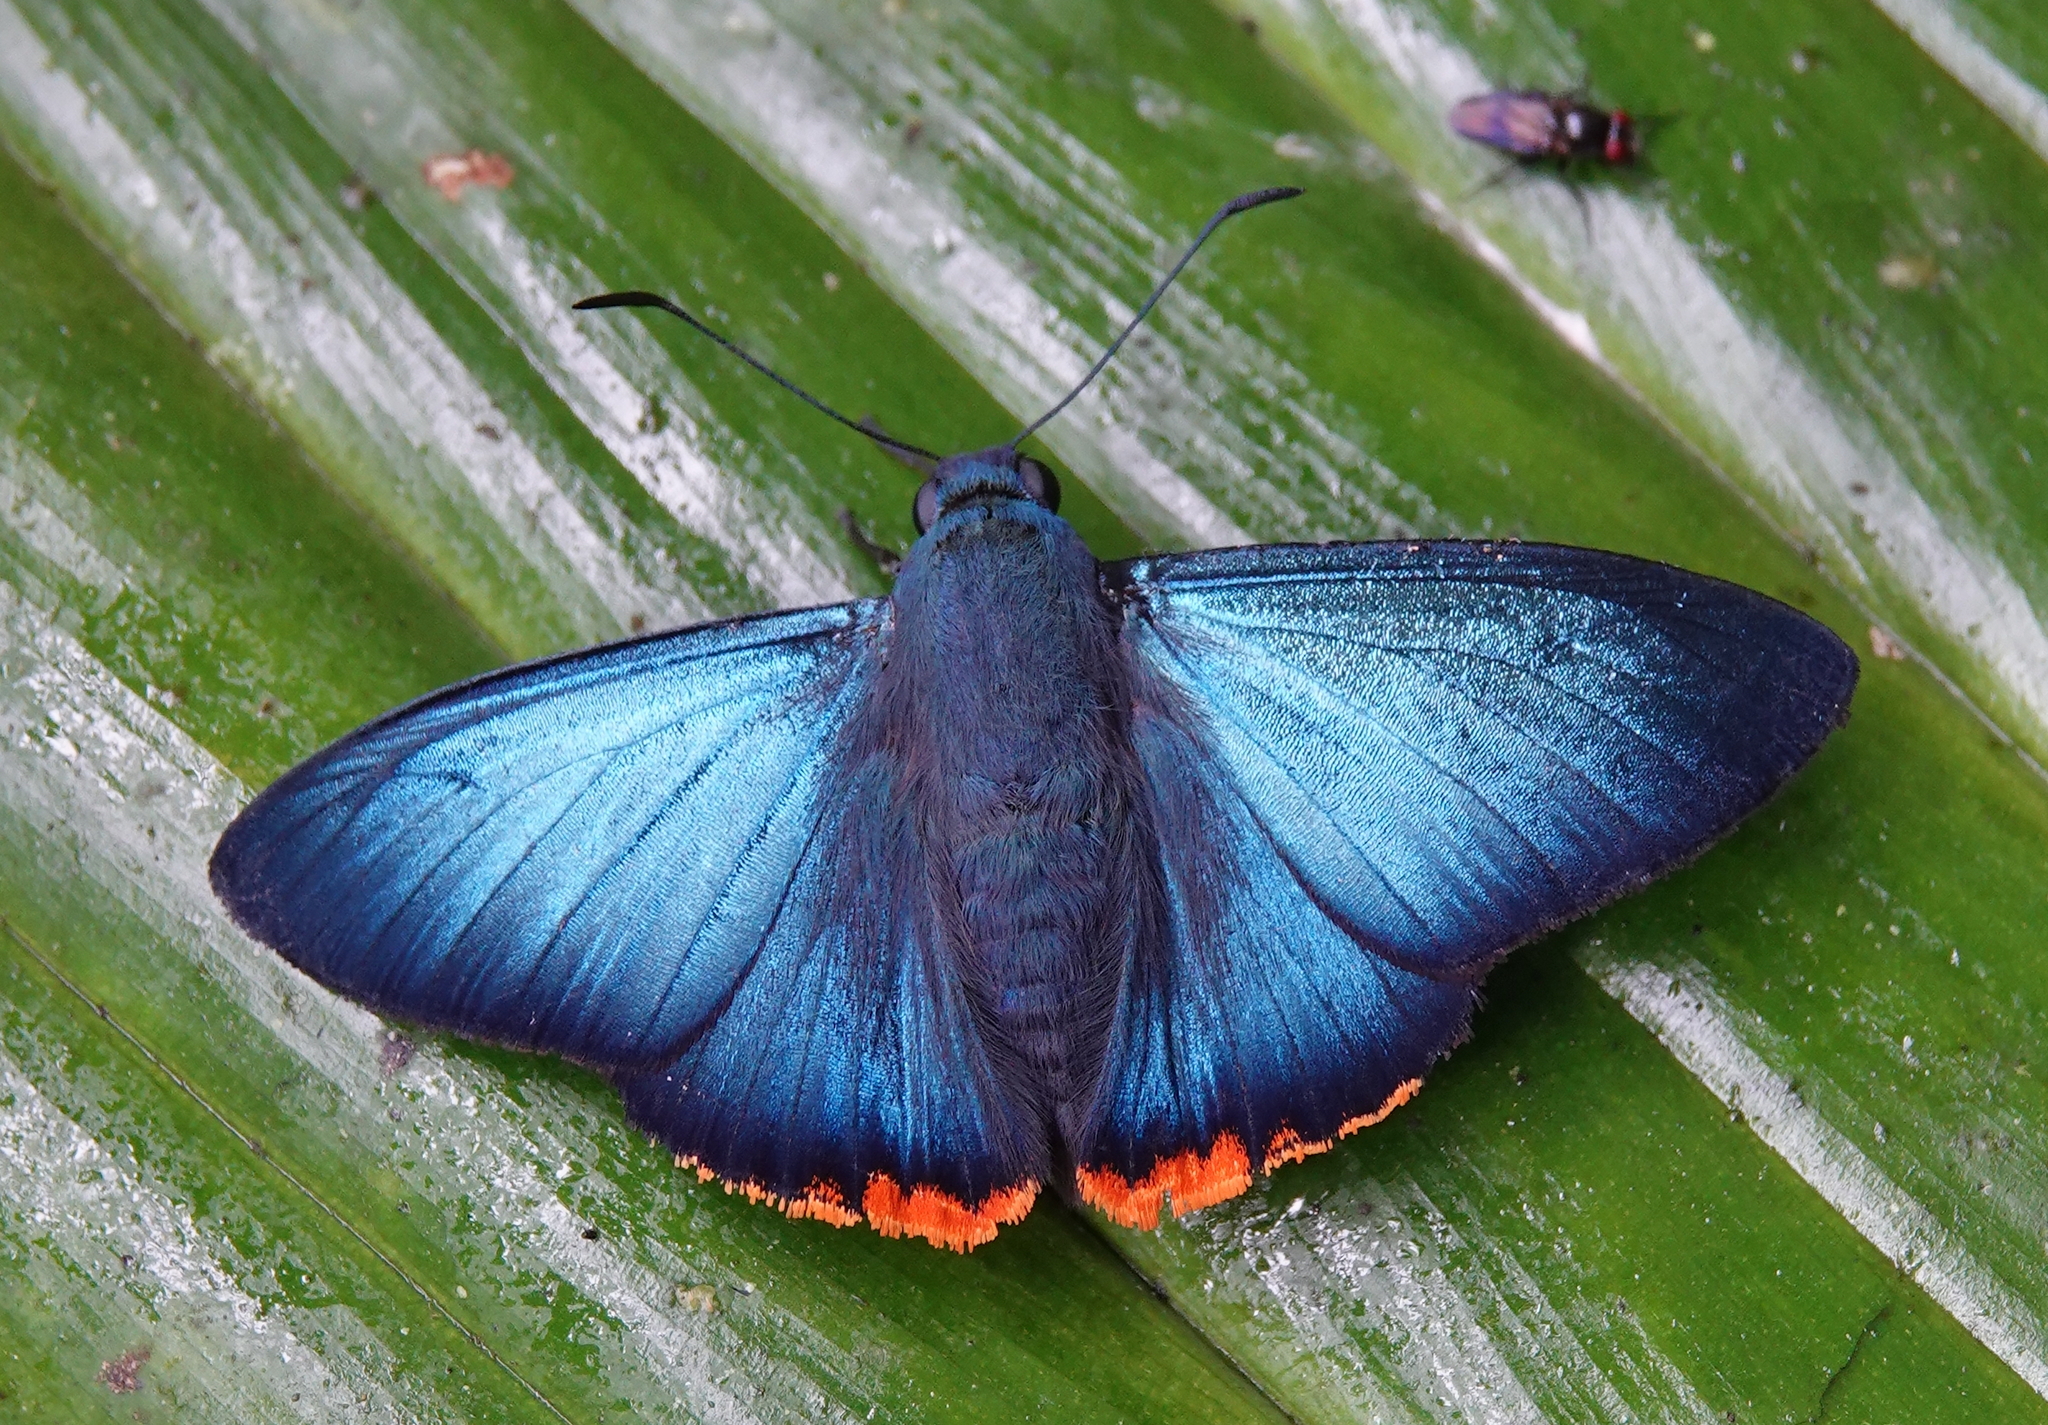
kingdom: Animalia
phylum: Arthropoda
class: Insecta
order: Lepidoptera
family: Hesperiidae
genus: Chalypyge
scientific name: Chalypyge
